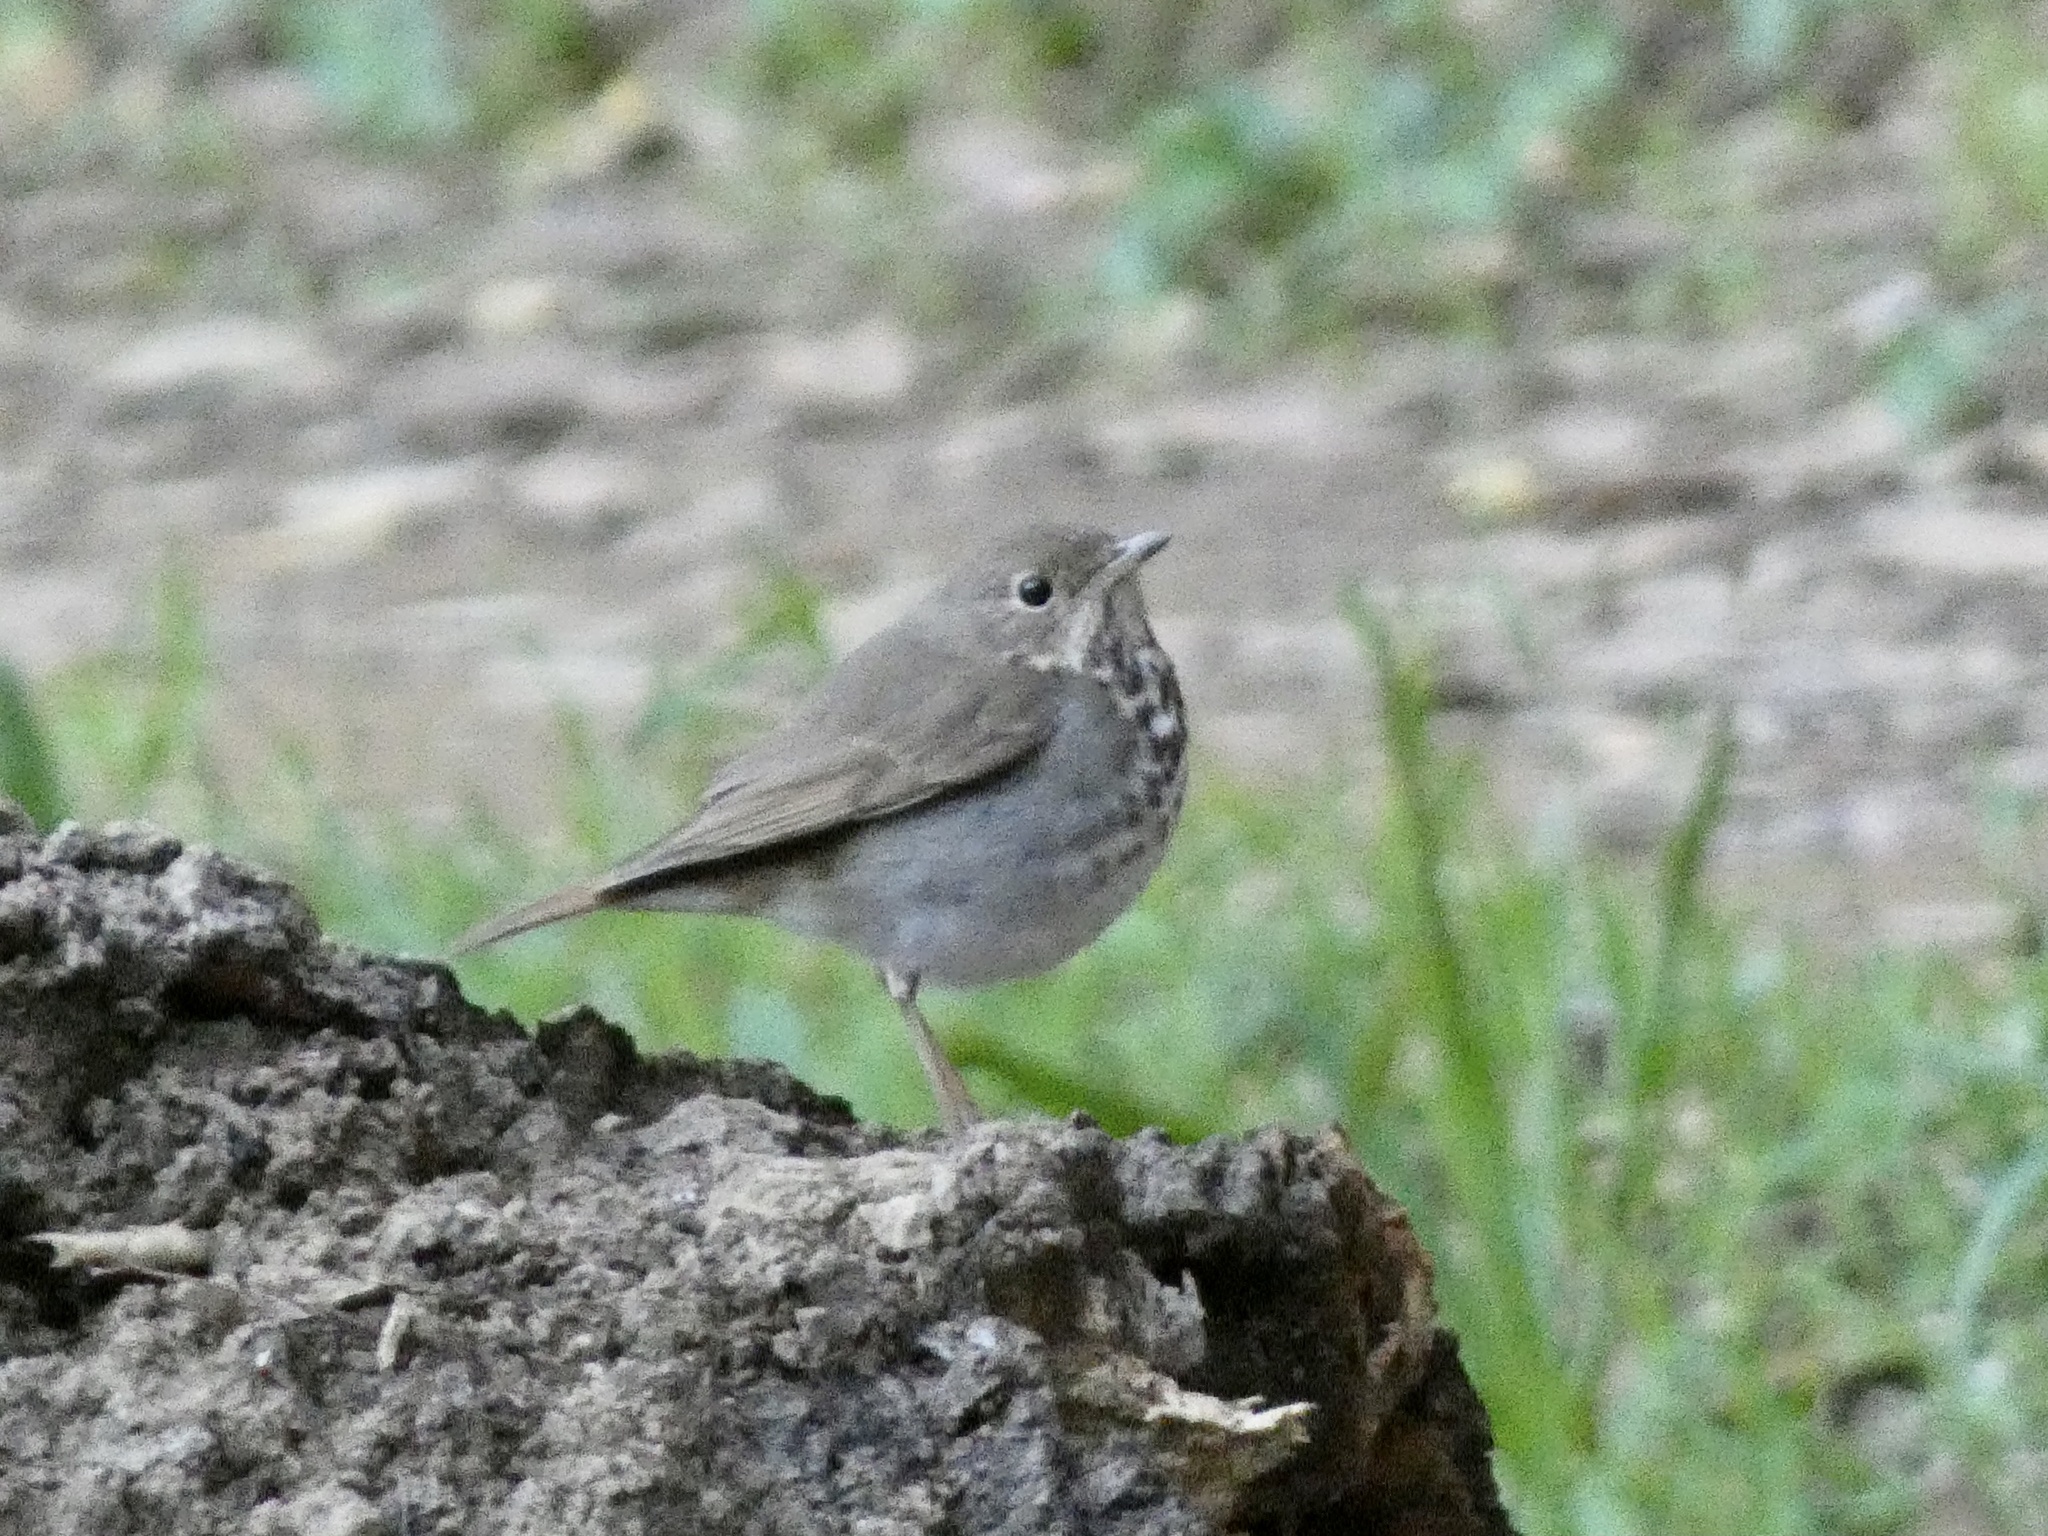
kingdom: Animalia
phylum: Chordata
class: Aves
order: Passeriformes
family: Turdidae
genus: Catharus
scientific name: Catharus guttatus
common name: Hermit thrush
